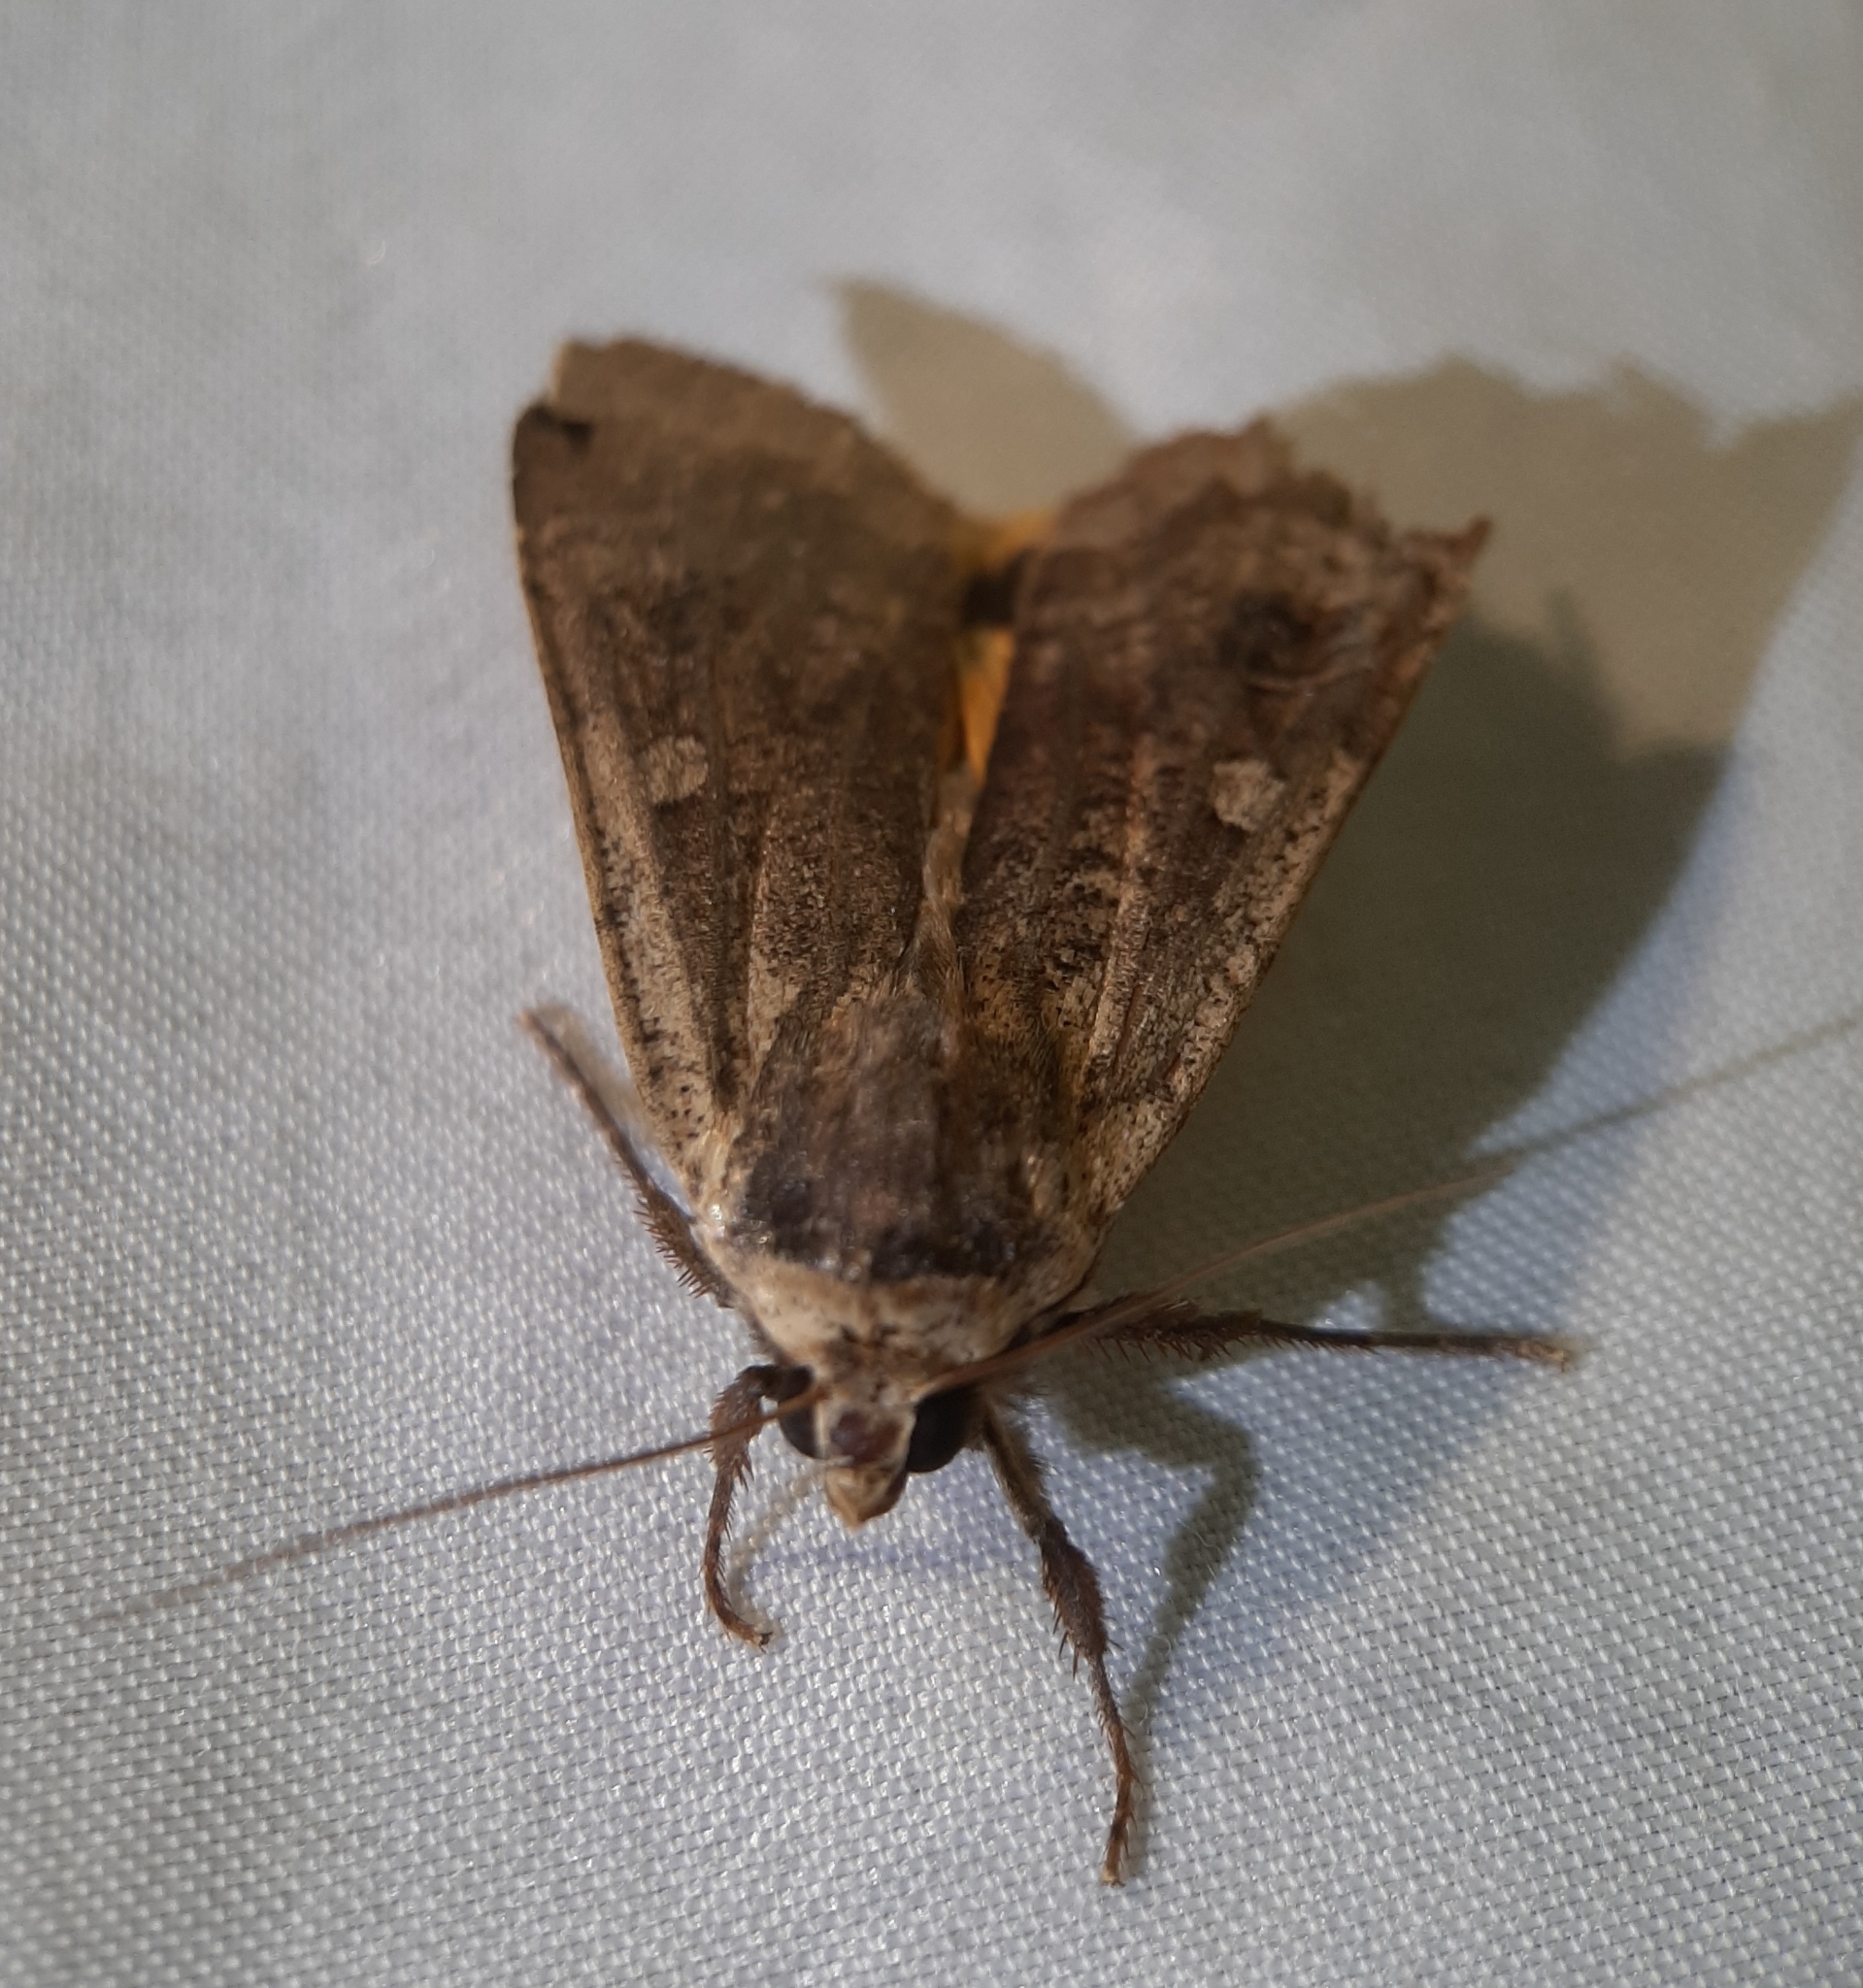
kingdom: Animalia
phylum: Arthropoda
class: Insecta
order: Lepidoptera
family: Noctuidae
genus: Noctua
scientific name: Noctua pronuba
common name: Large yellow underwing
